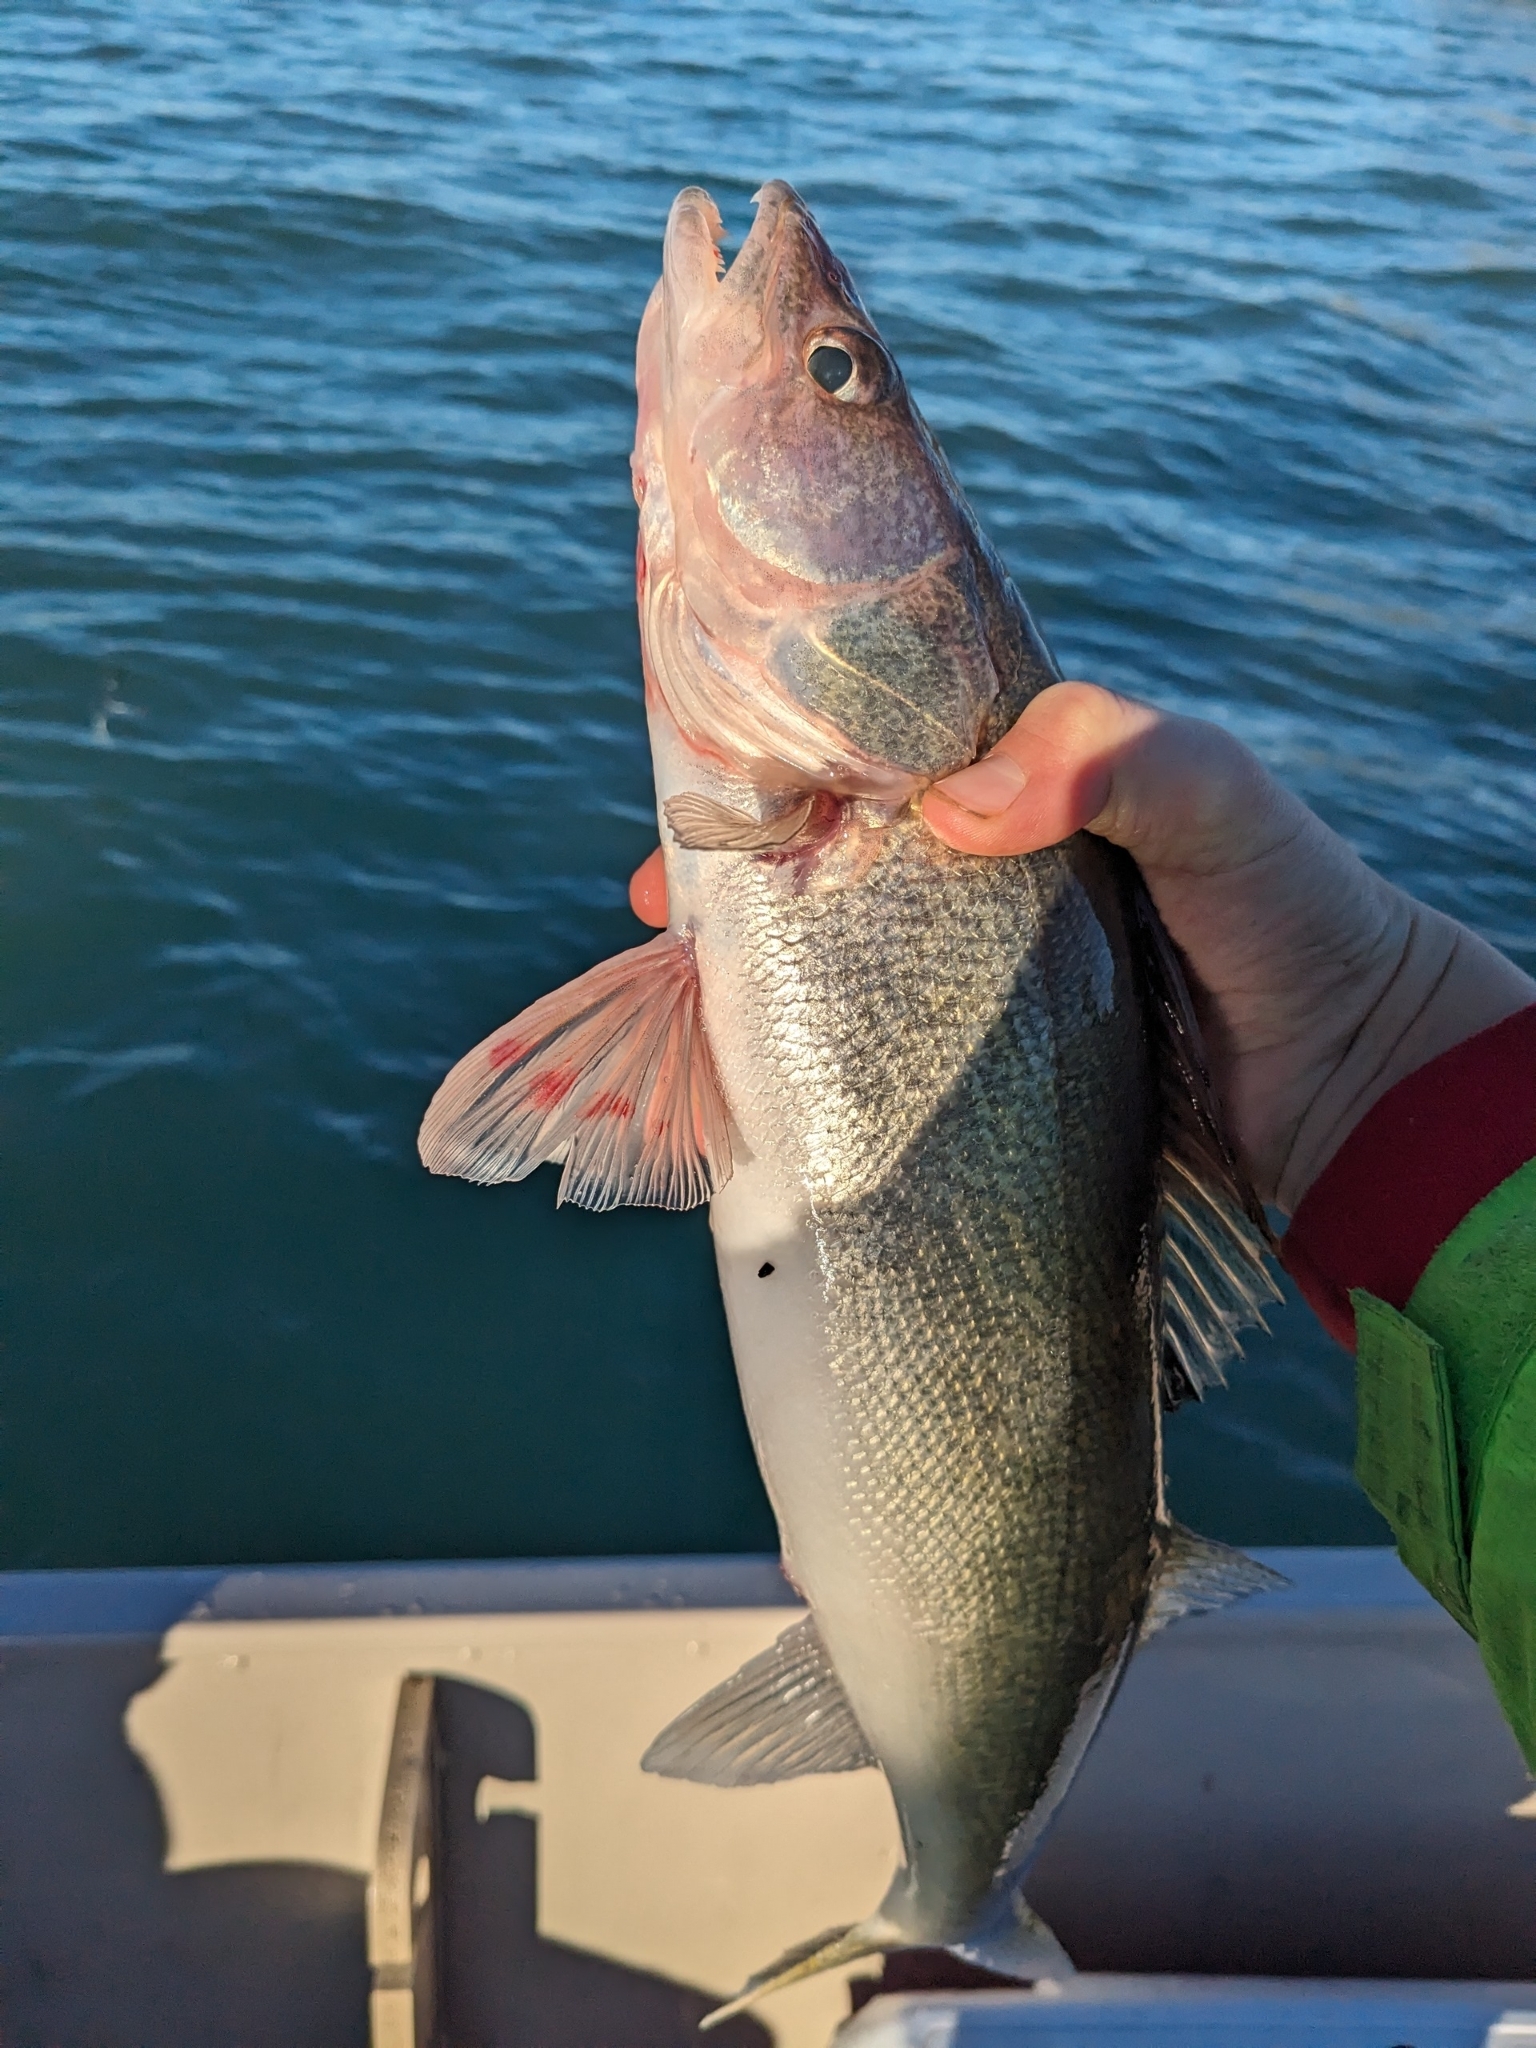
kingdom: Animalia
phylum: Chordata
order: Perciformes
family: Percidae
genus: Sander
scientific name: Sander vitreus
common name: Walleye
